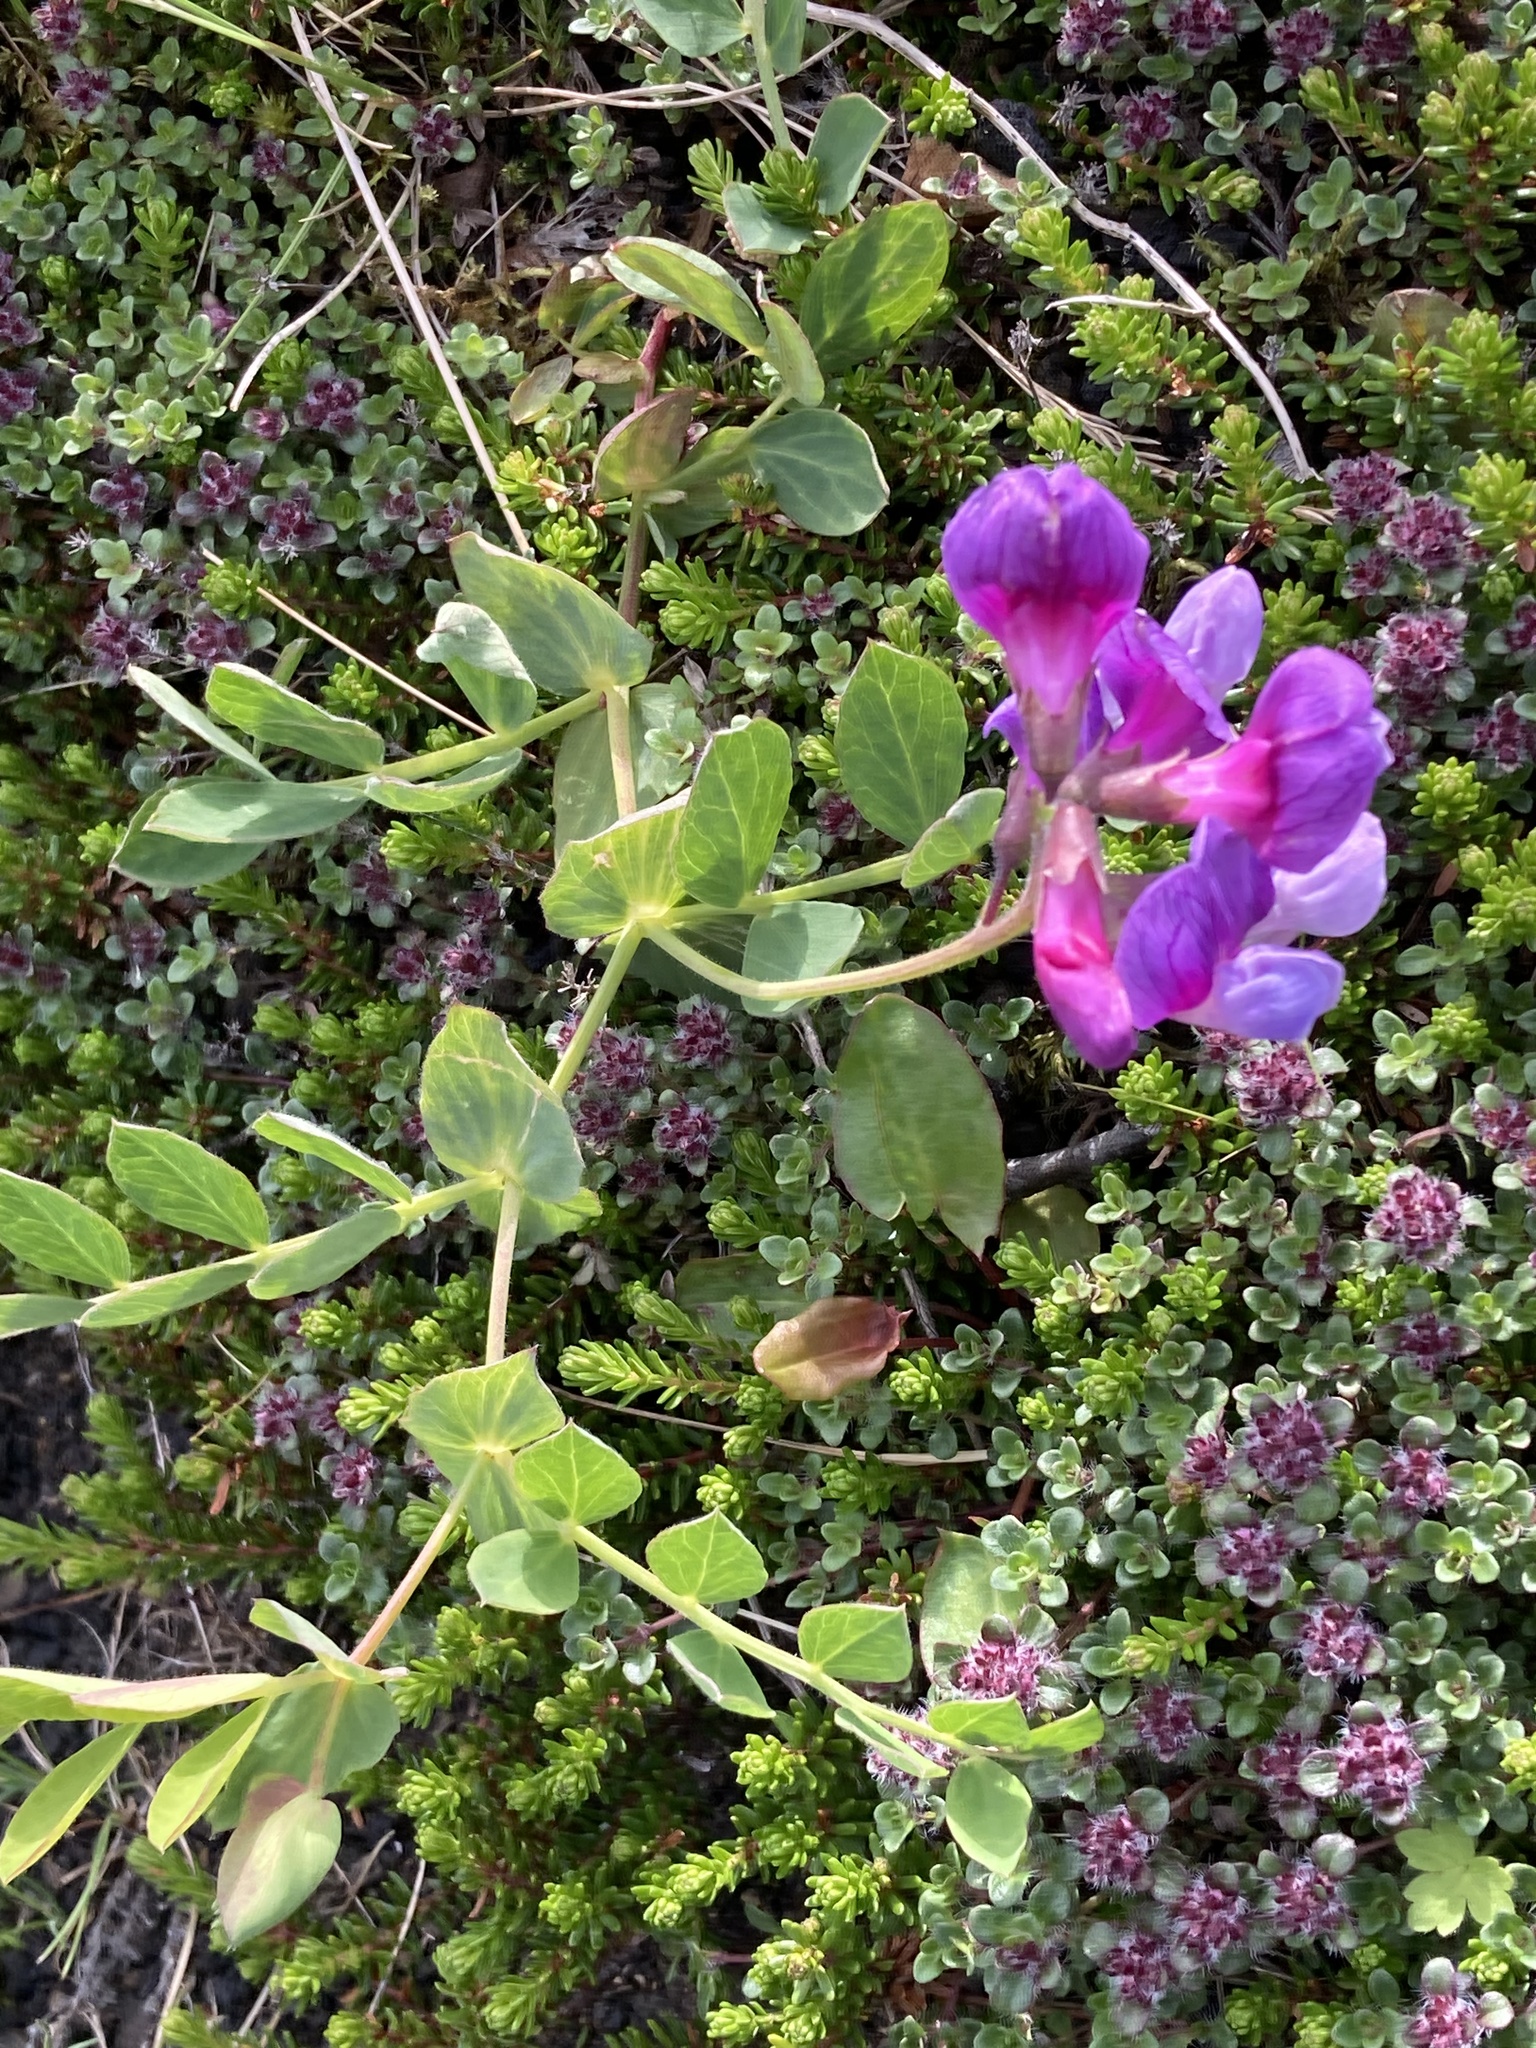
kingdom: Plantae
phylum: Tracheophyta
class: Magnoliopsida
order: Fabales
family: Fabaceae
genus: Lathyrus
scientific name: Lathyrus japonicus
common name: Sea pea
